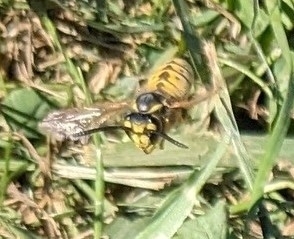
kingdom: Animalia
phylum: Arthropoda
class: Insecta
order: Hymenoptera
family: Vespidae
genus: Vespula
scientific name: Vespula germanica
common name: German wasp
